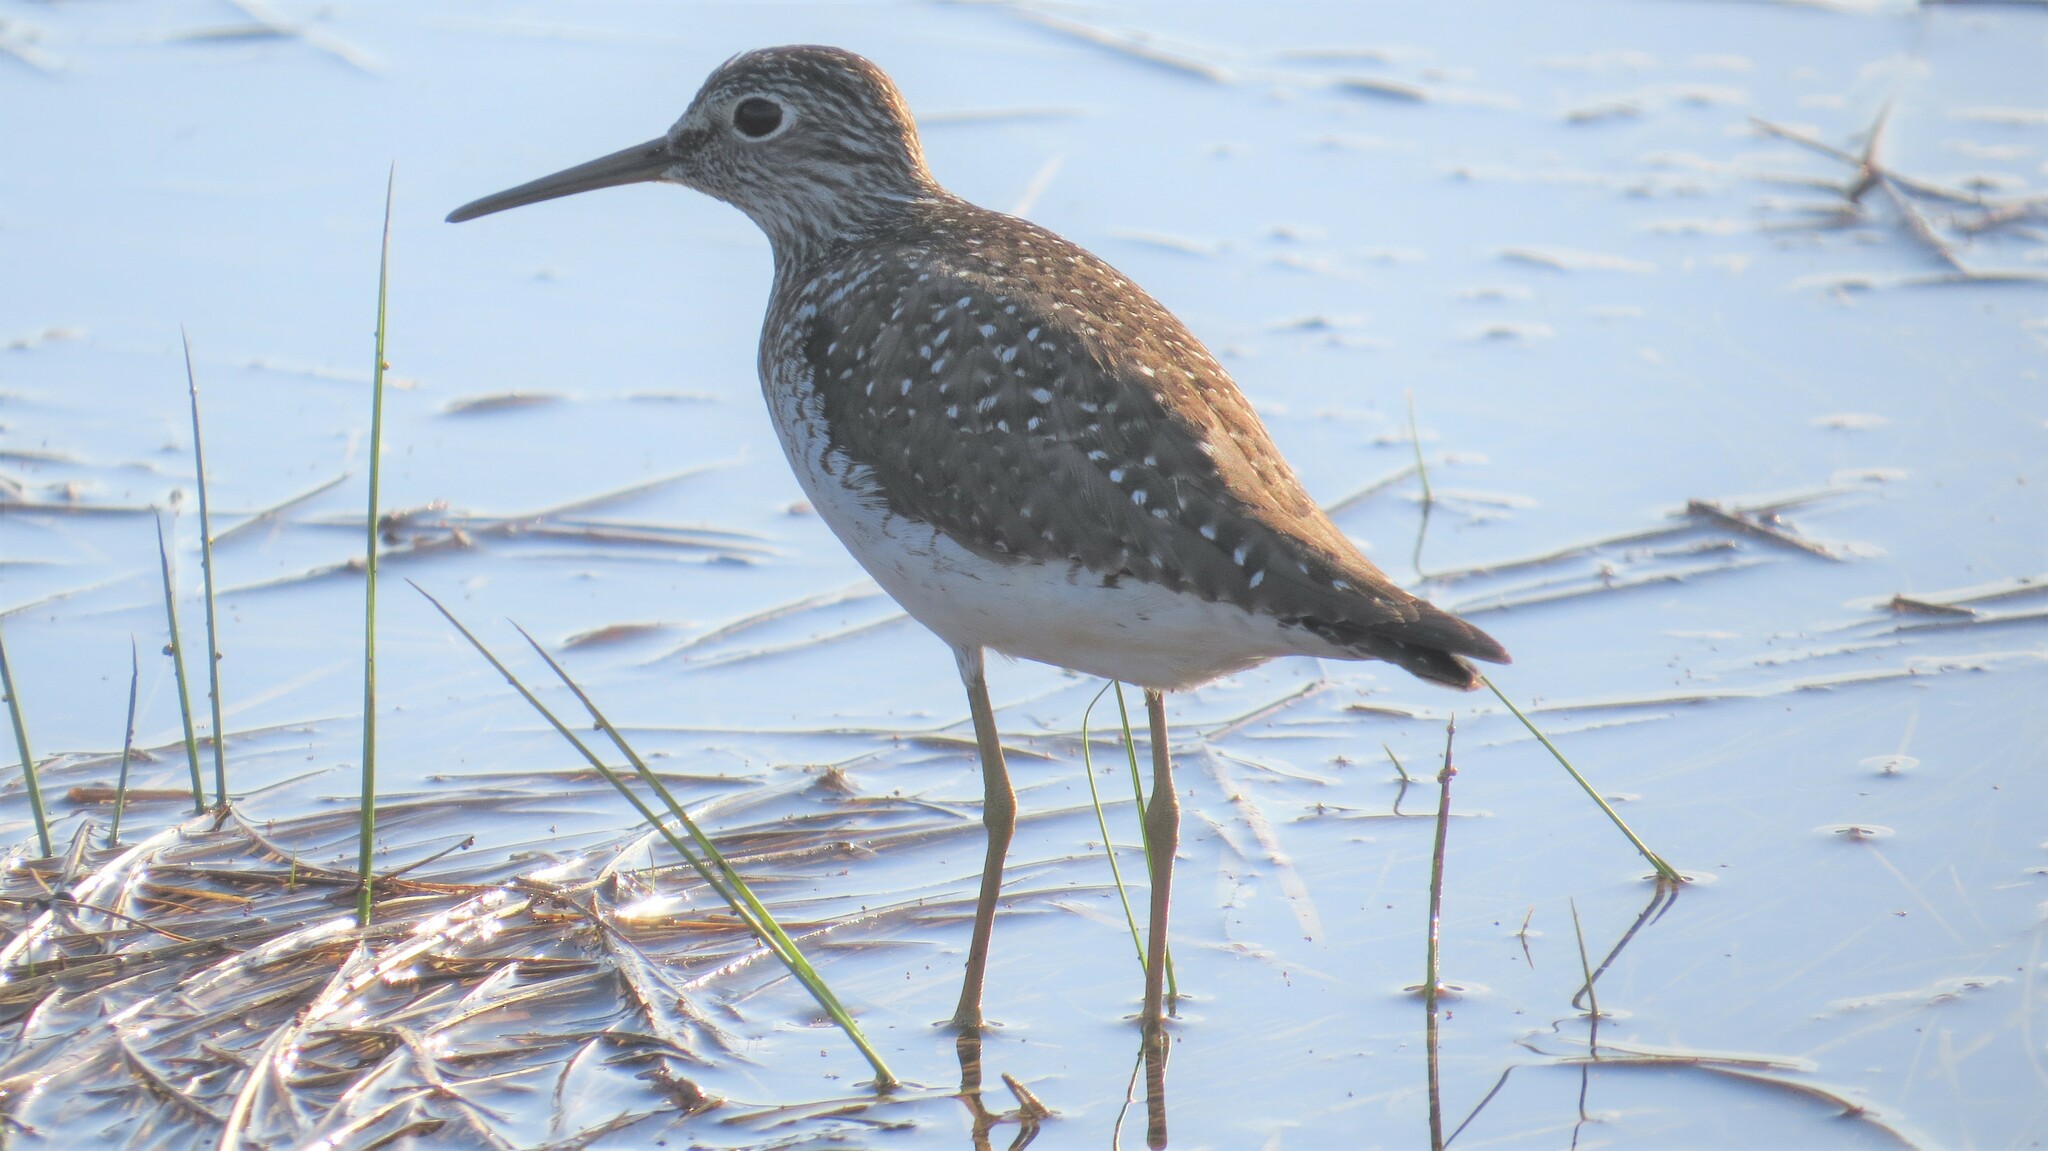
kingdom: Animalia
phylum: Chordata
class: Aves
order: Charadriiformes
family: Scolopacidae
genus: Tringa
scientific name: Tringa solitaria
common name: Solitary sandpiper
